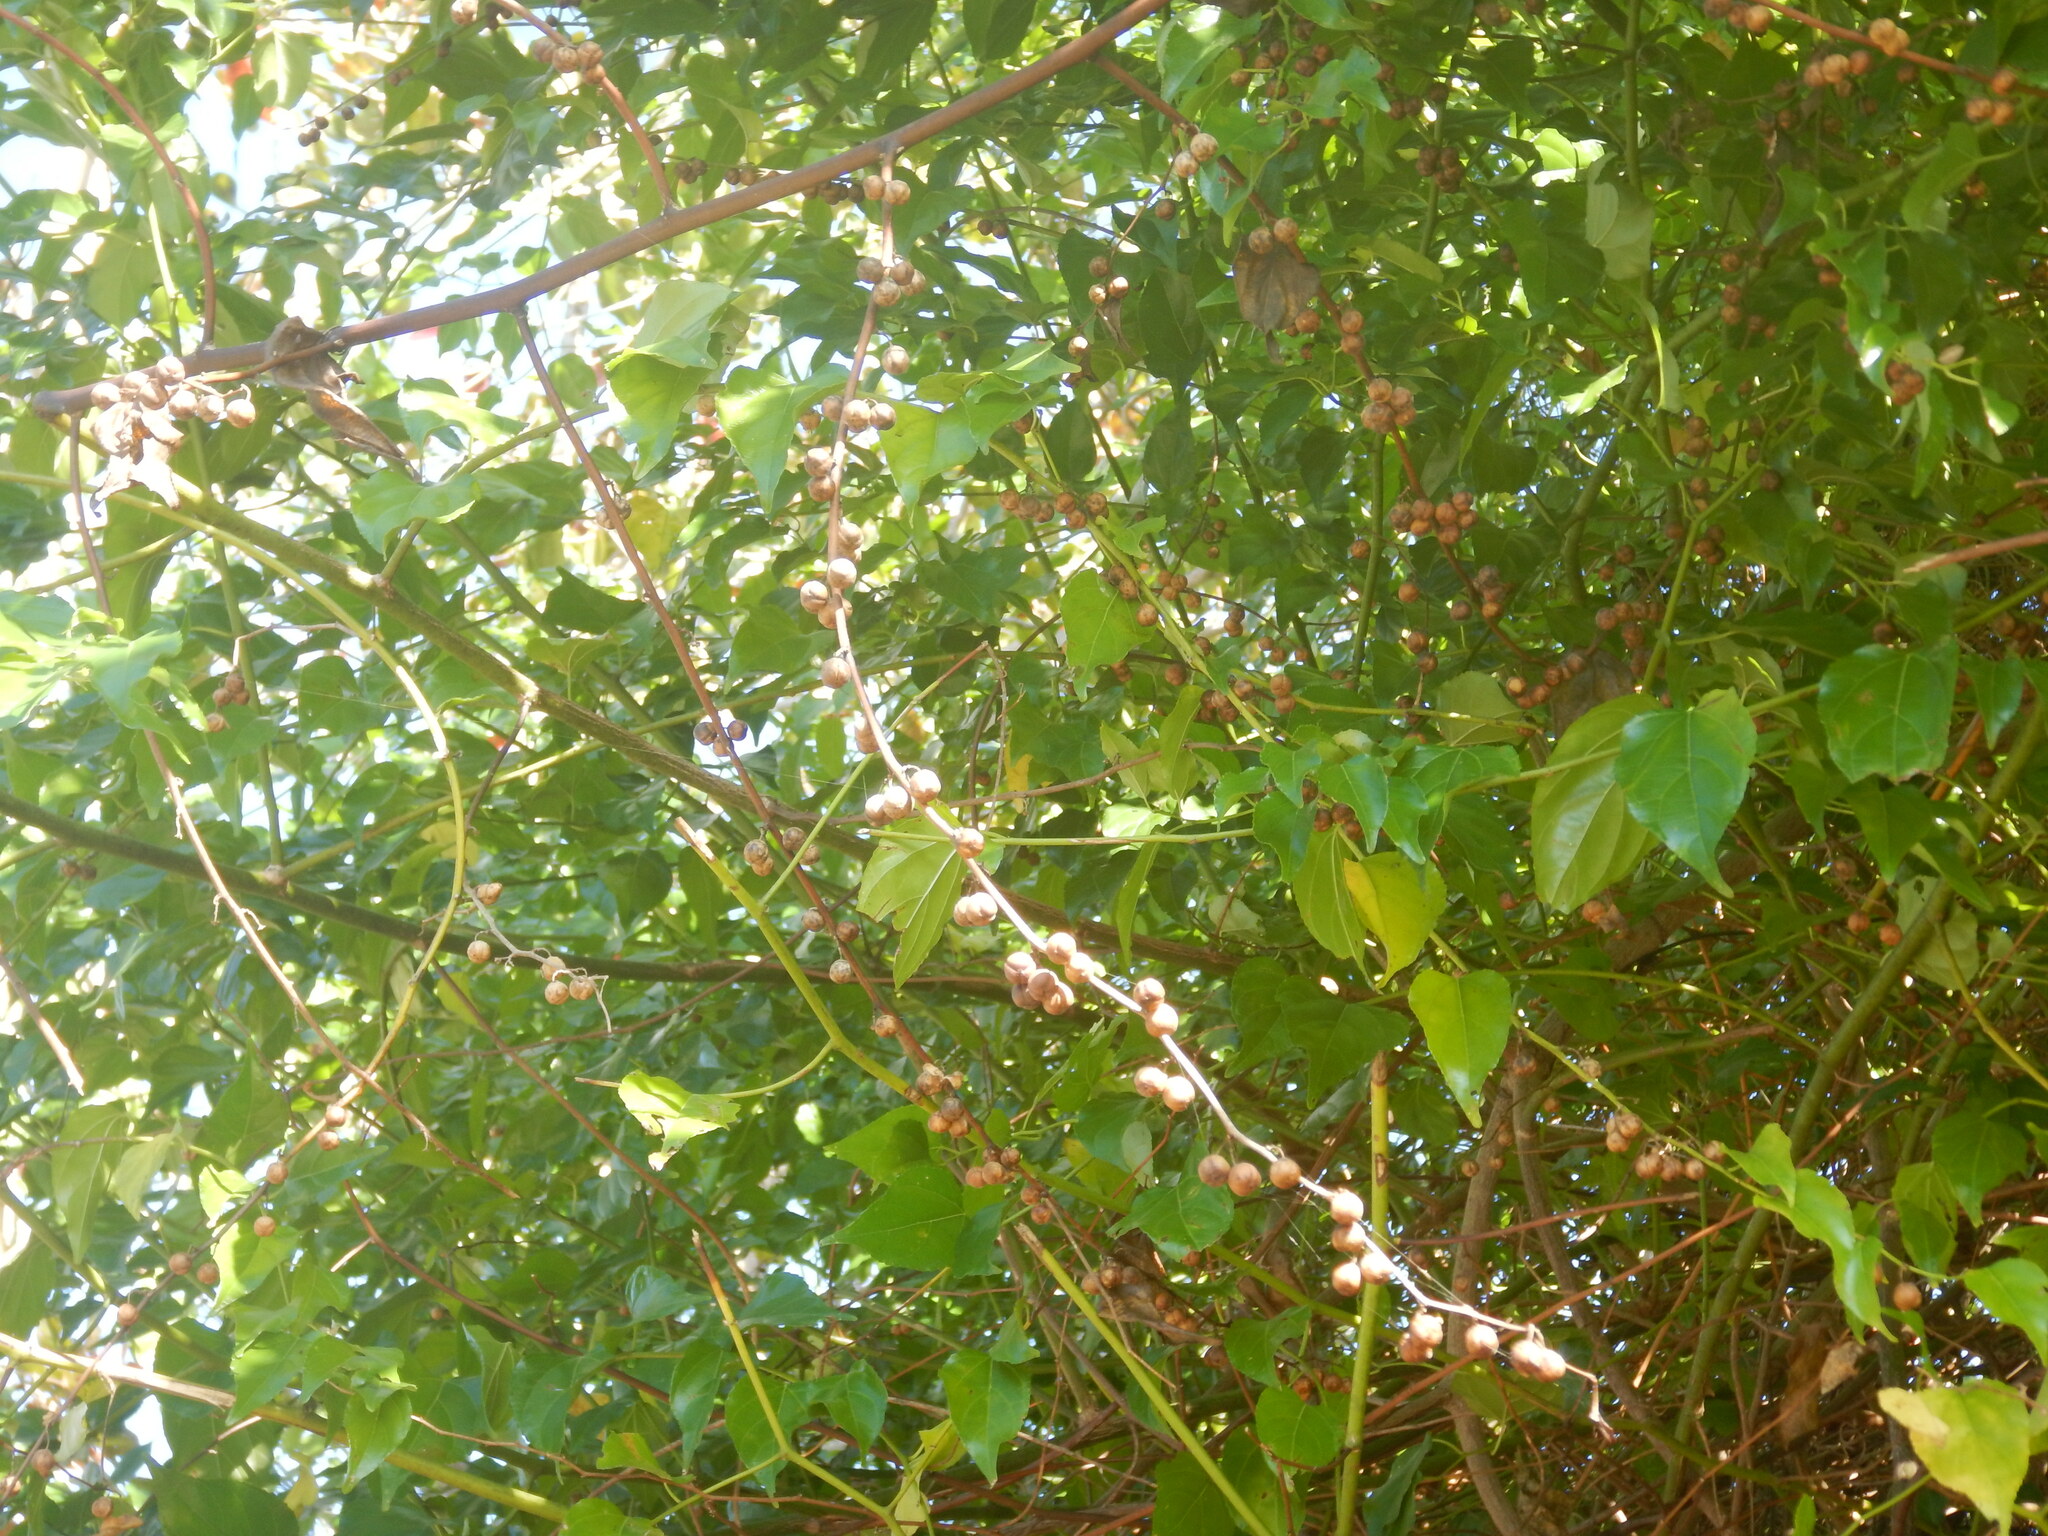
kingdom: Plantae
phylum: Tracheophyta
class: Magnoliopsida
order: Rosales
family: Rhamnaceae
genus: Colubrina
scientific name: Colubrina asiatica
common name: Asian nakedwood
